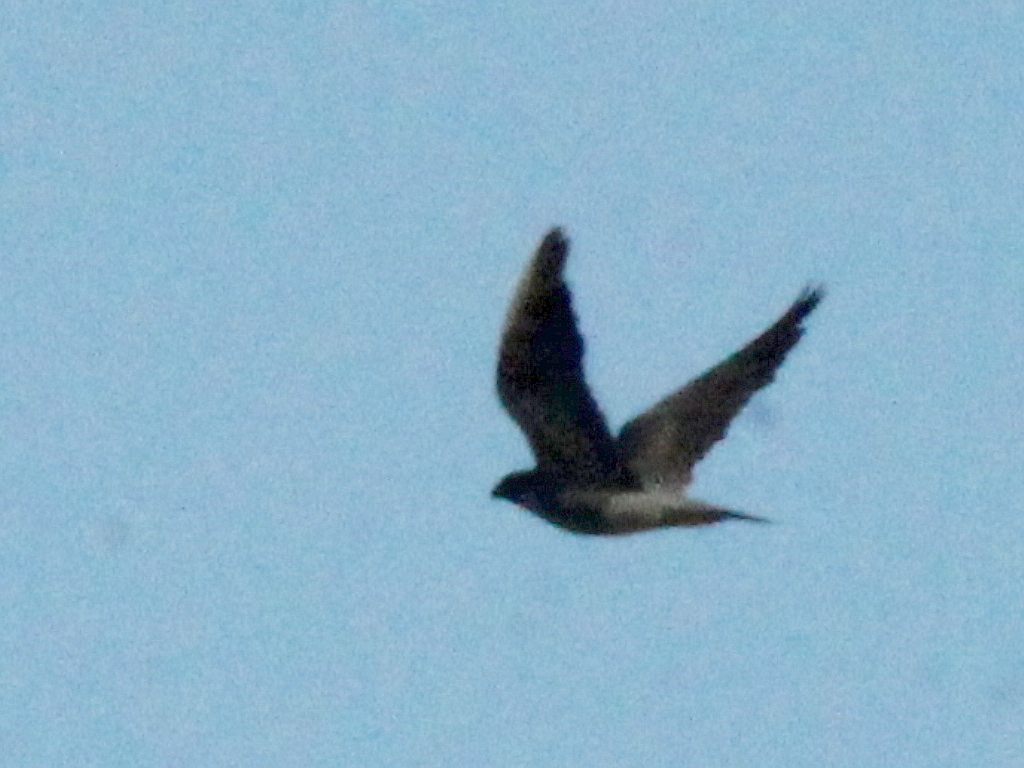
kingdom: Animalia
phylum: Chordata
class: Aves
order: Falconiformes
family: Falconidae
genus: Falco
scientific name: Falco peregrinus
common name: Peregrine falcon
